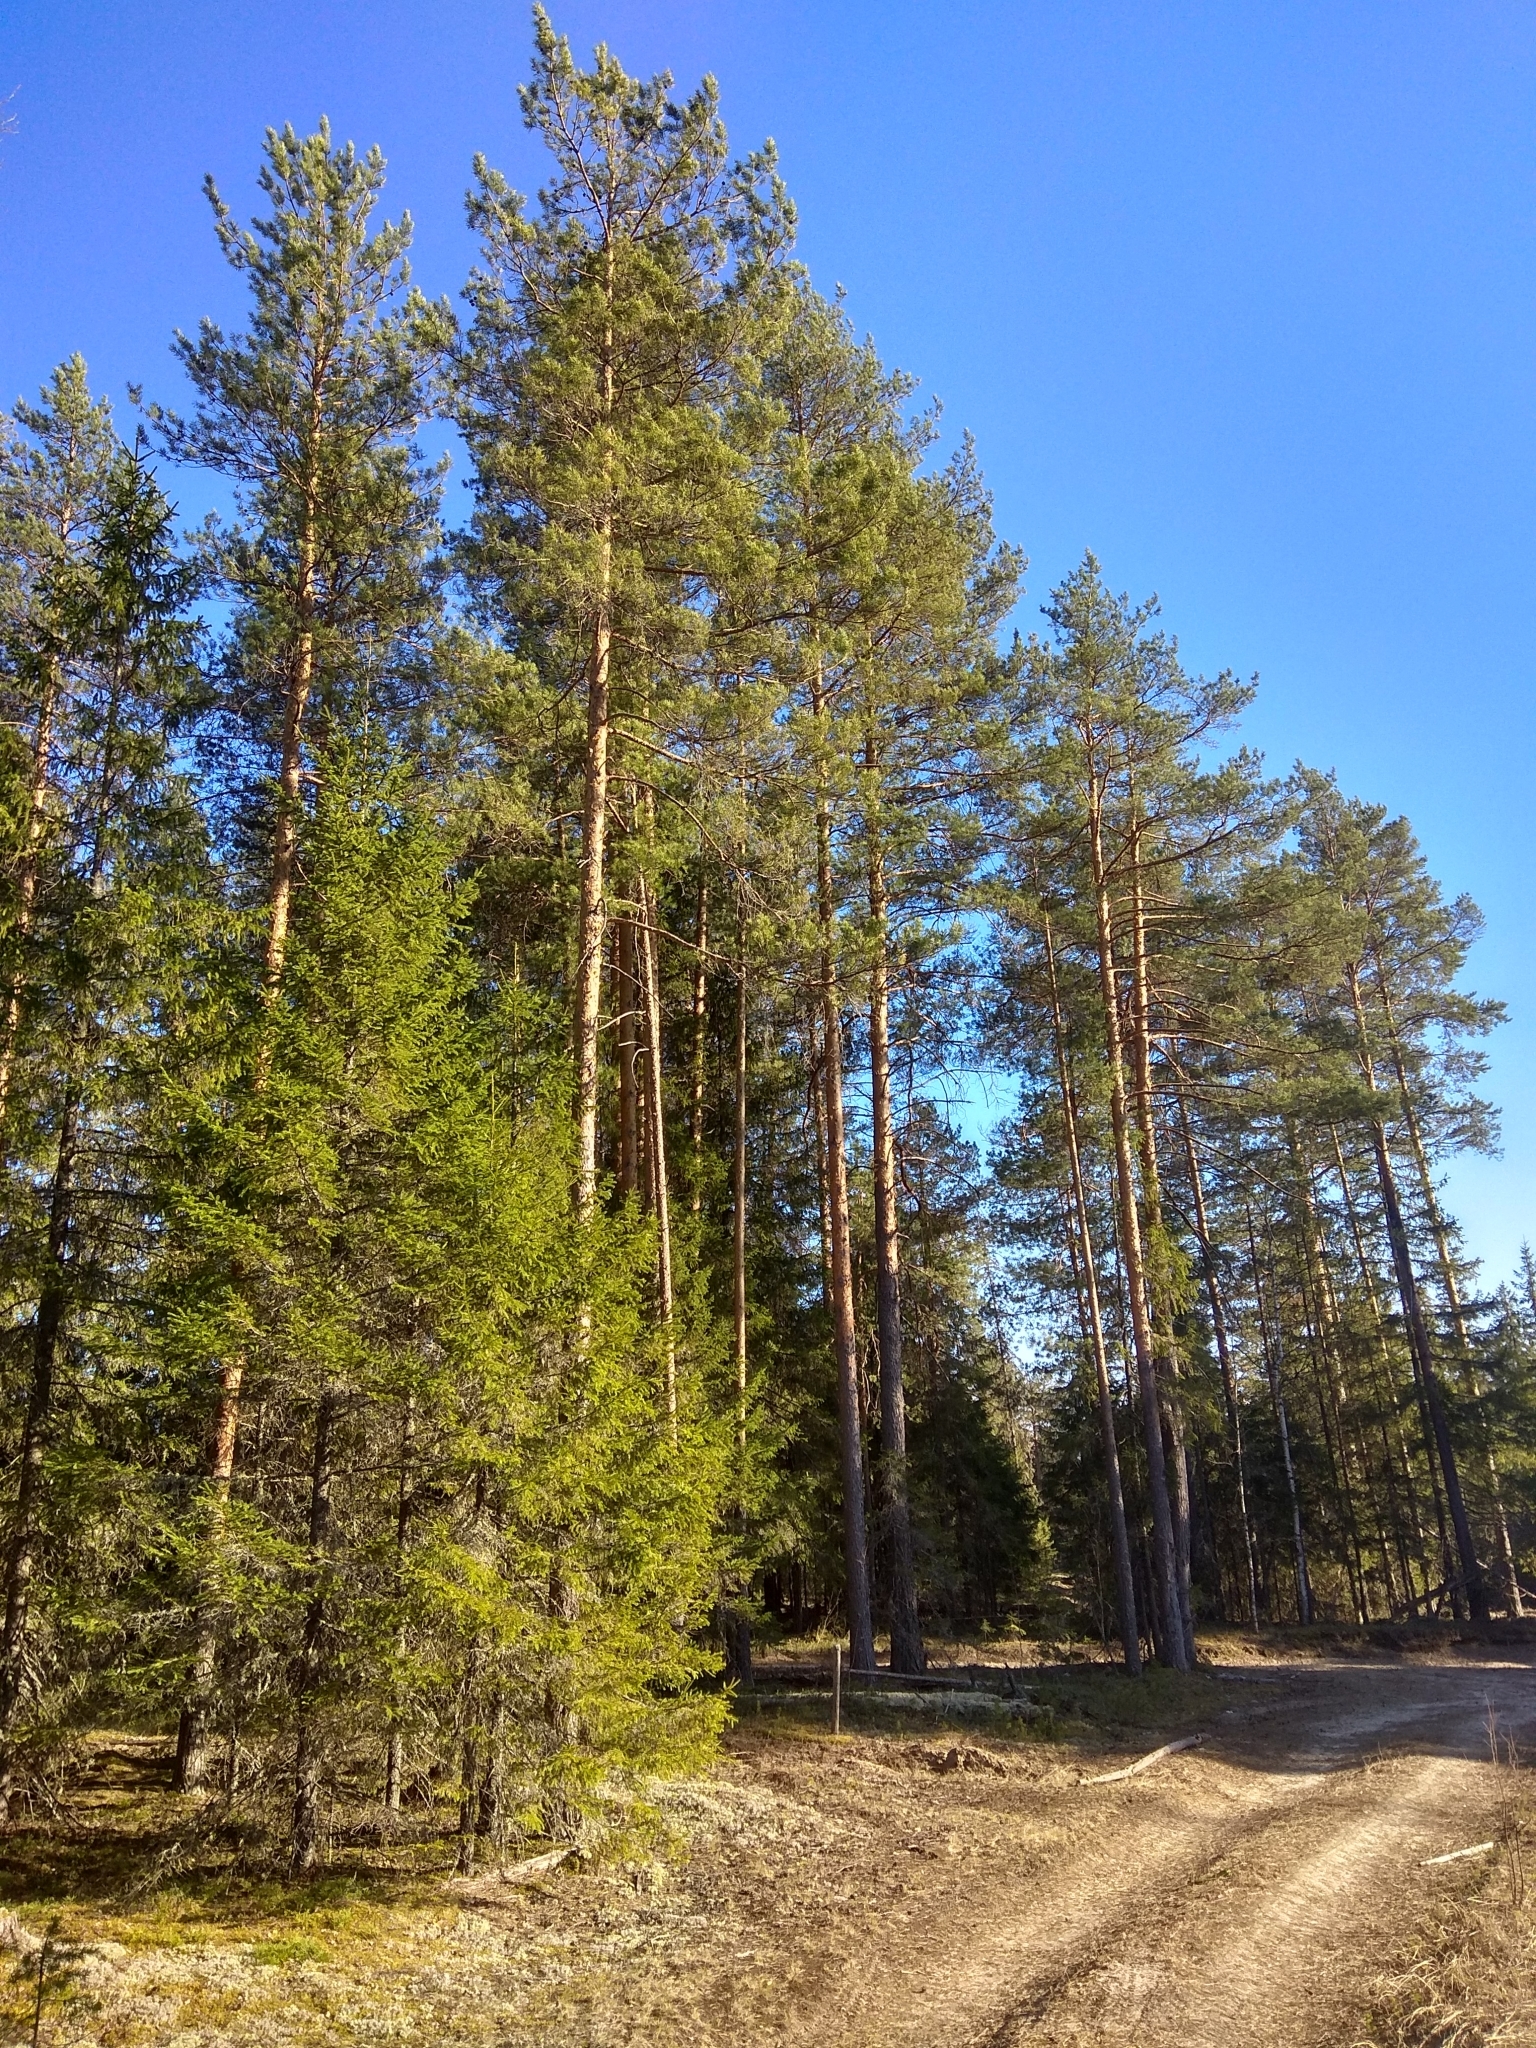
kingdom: Plantae
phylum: Tracheophyta
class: Pinopsida
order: Pinales
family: Pinaceae
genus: Pinus
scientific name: Pinus sylvestris
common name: Scots pine
